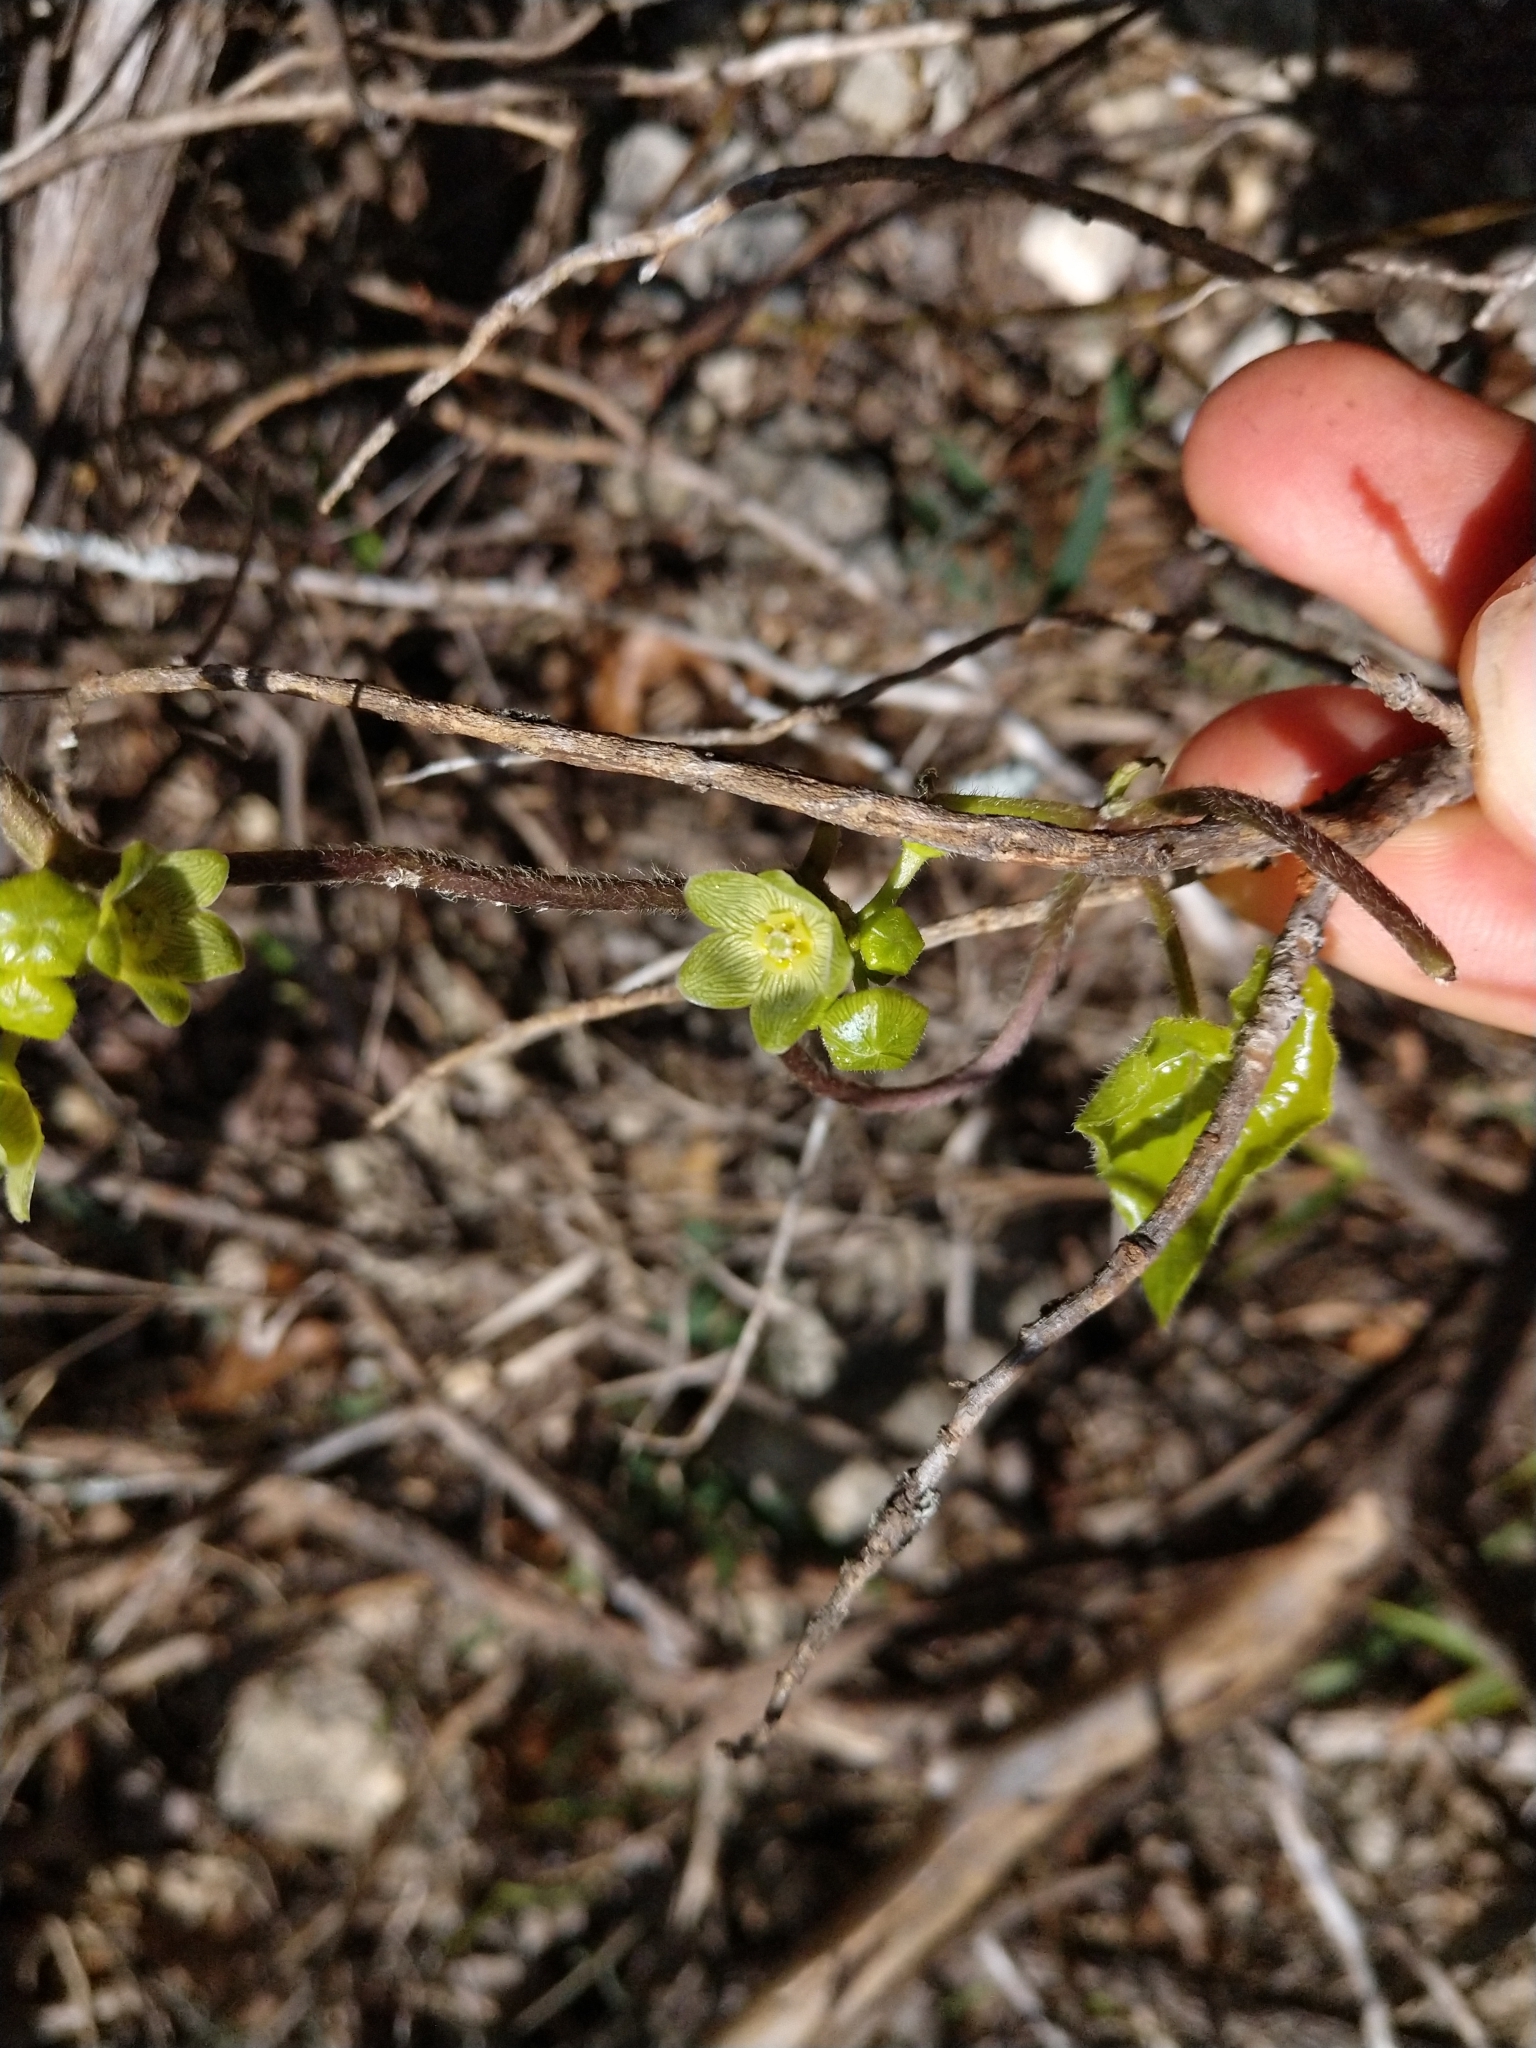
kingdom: Plantae
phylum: Tracheophyta
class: Magnoliopsida
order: Gentianales
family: Apocynaceae
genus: Matelea
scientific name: Matelea edwardsensis
